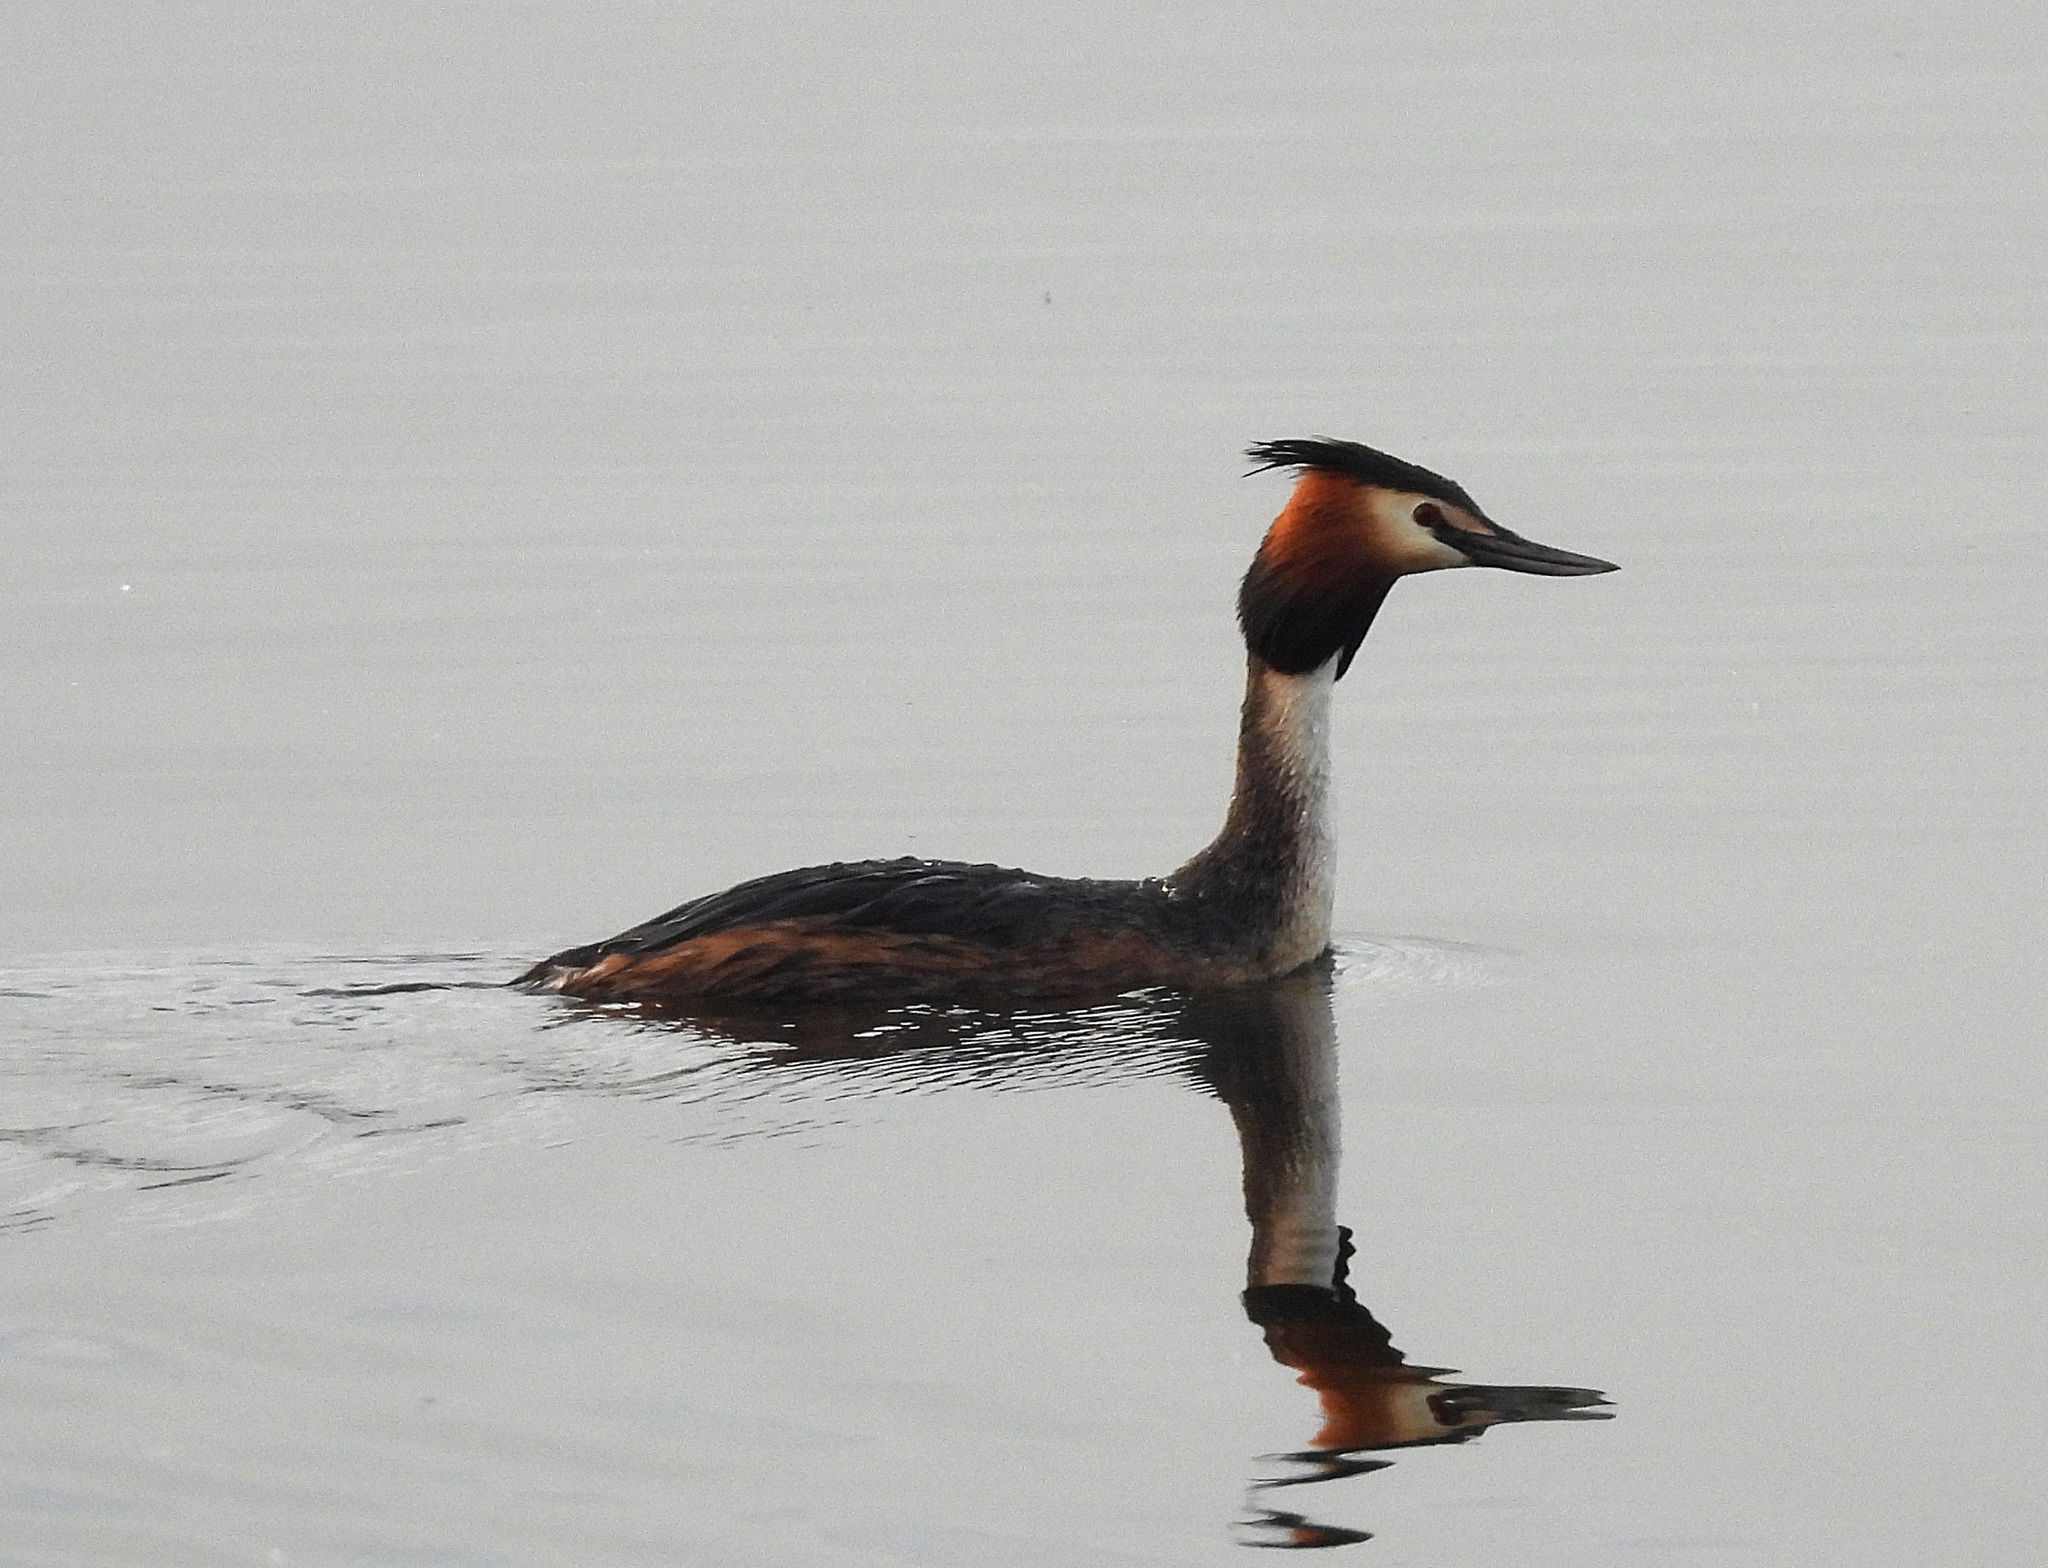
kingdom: Animalia
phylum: Chordata
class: Aves
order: Podicipediformes
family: Podicipedidae
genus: Podiceps
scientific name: Podiceps cristatus
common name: Great crested grebe
